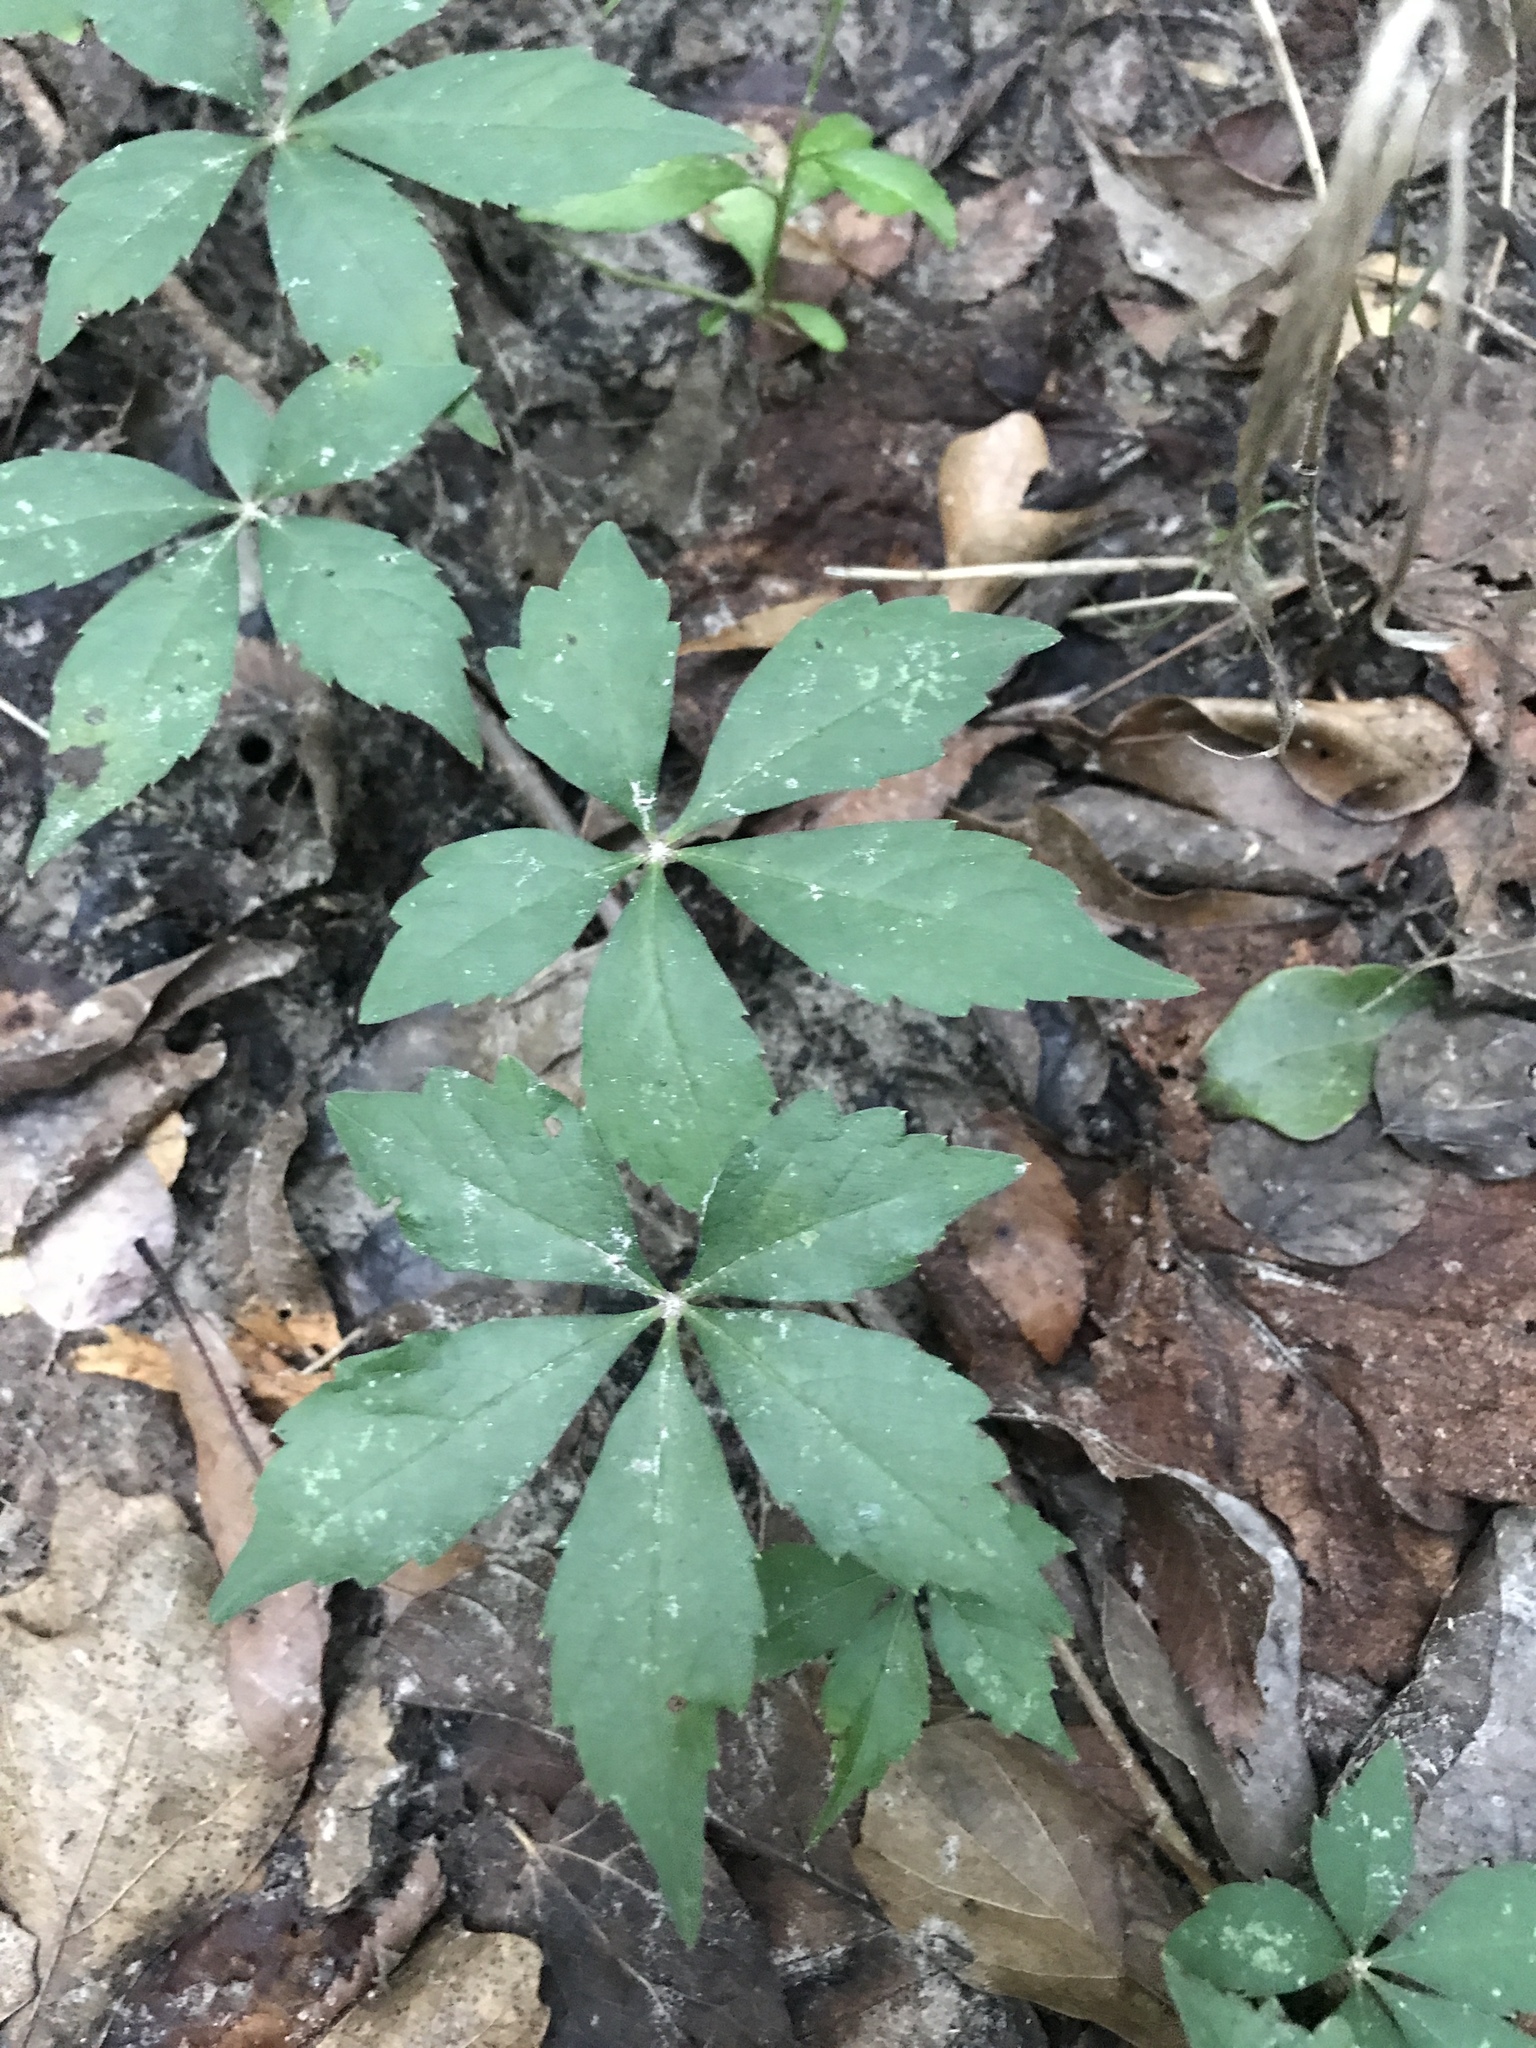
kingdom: Plantae
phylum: Tracheophyta
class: Magnoliopsida
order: Vitales
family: Vitaceae
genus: Parthenocissus
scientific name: Parthenocissus quinquefolia
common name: Virginia-creeper
